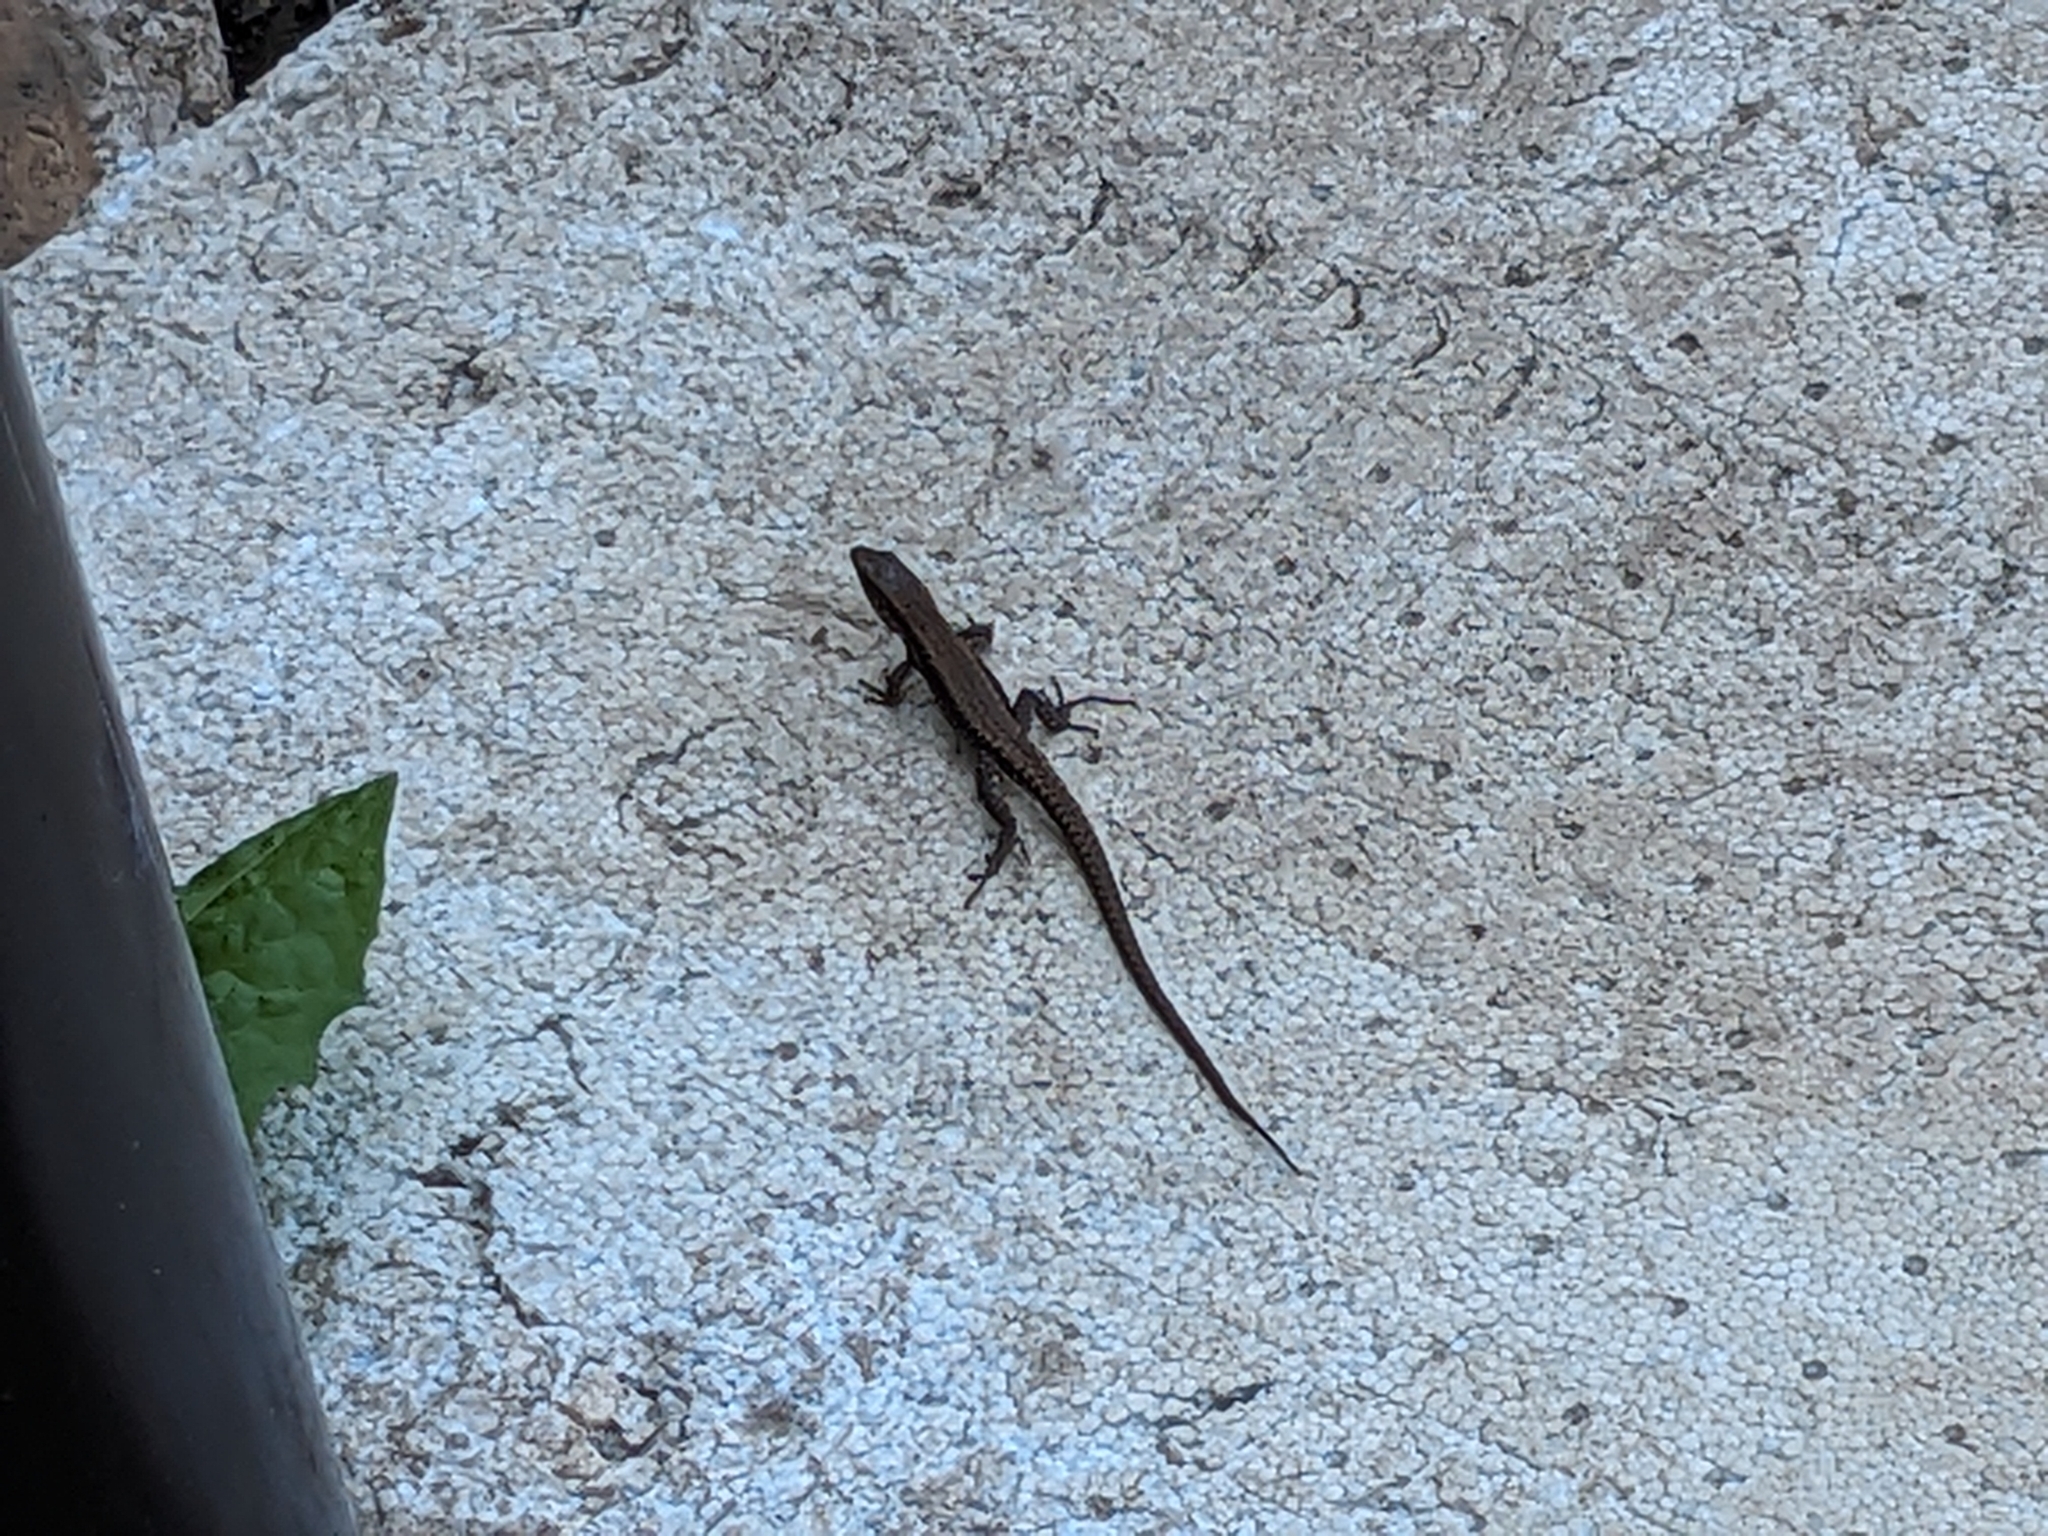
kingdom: Animalia
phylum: Chordata
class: Squamata
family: Lacertidae
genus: Podarcis
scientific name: Podarcis muralis
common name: Common wall lizard
